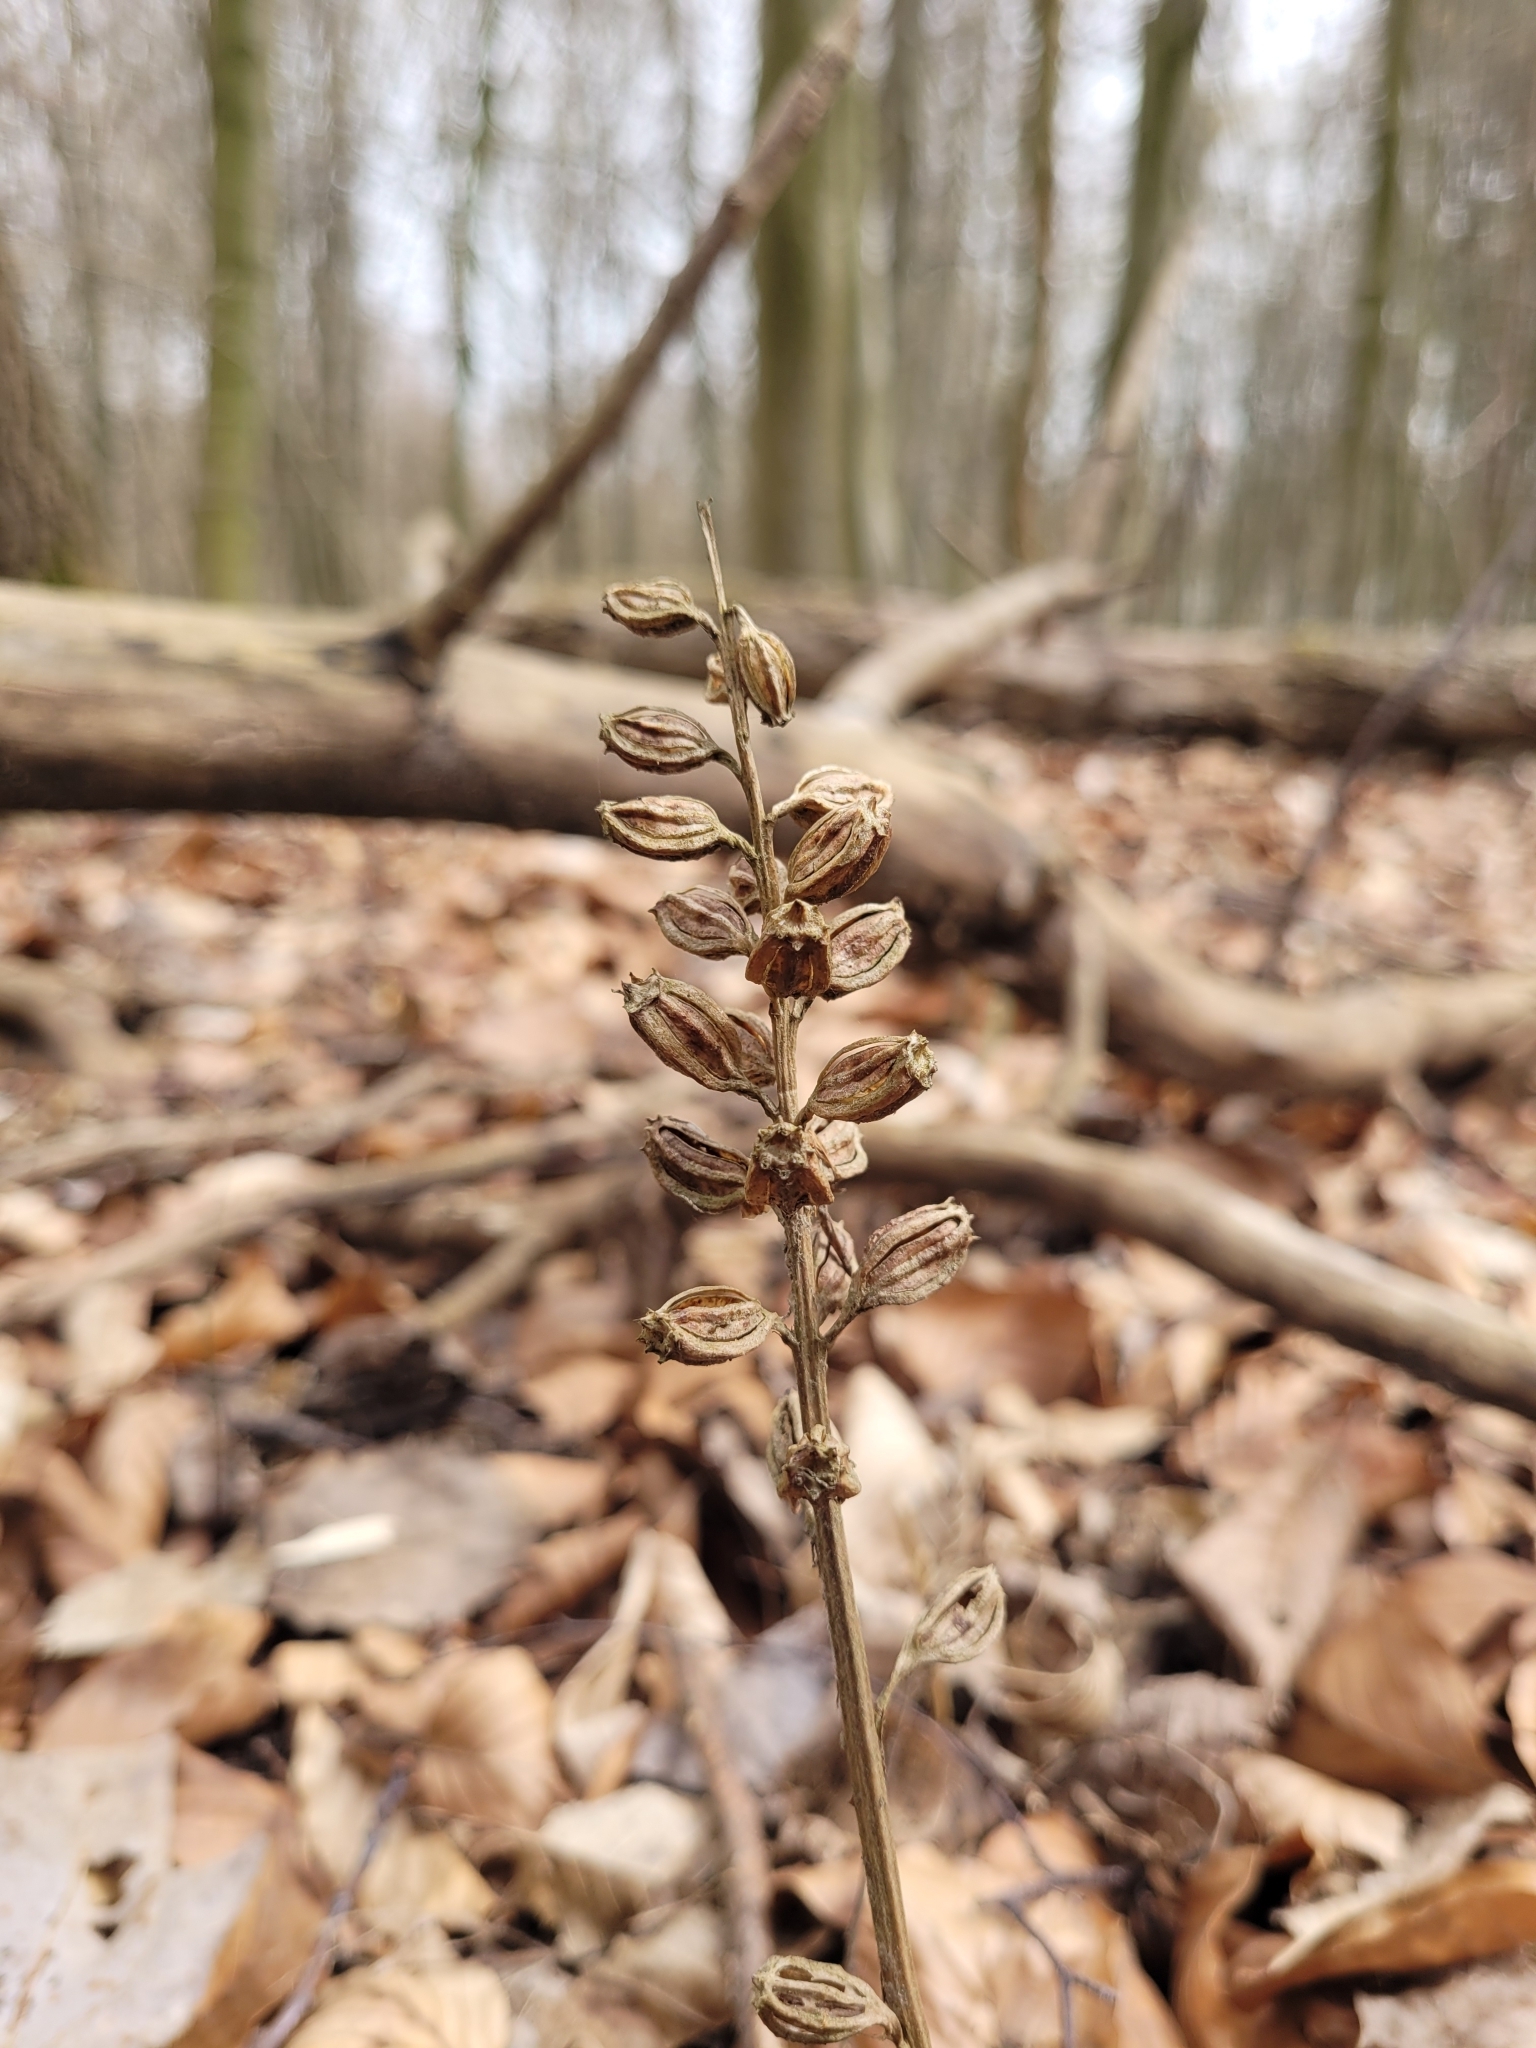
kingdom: Plantae
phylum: Tracheophyta
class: Liliopsida
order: Asparagales
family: Orchidaceae
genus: Neottia
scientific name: Neottia nidus-avis
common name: Bird's-nest orchid
